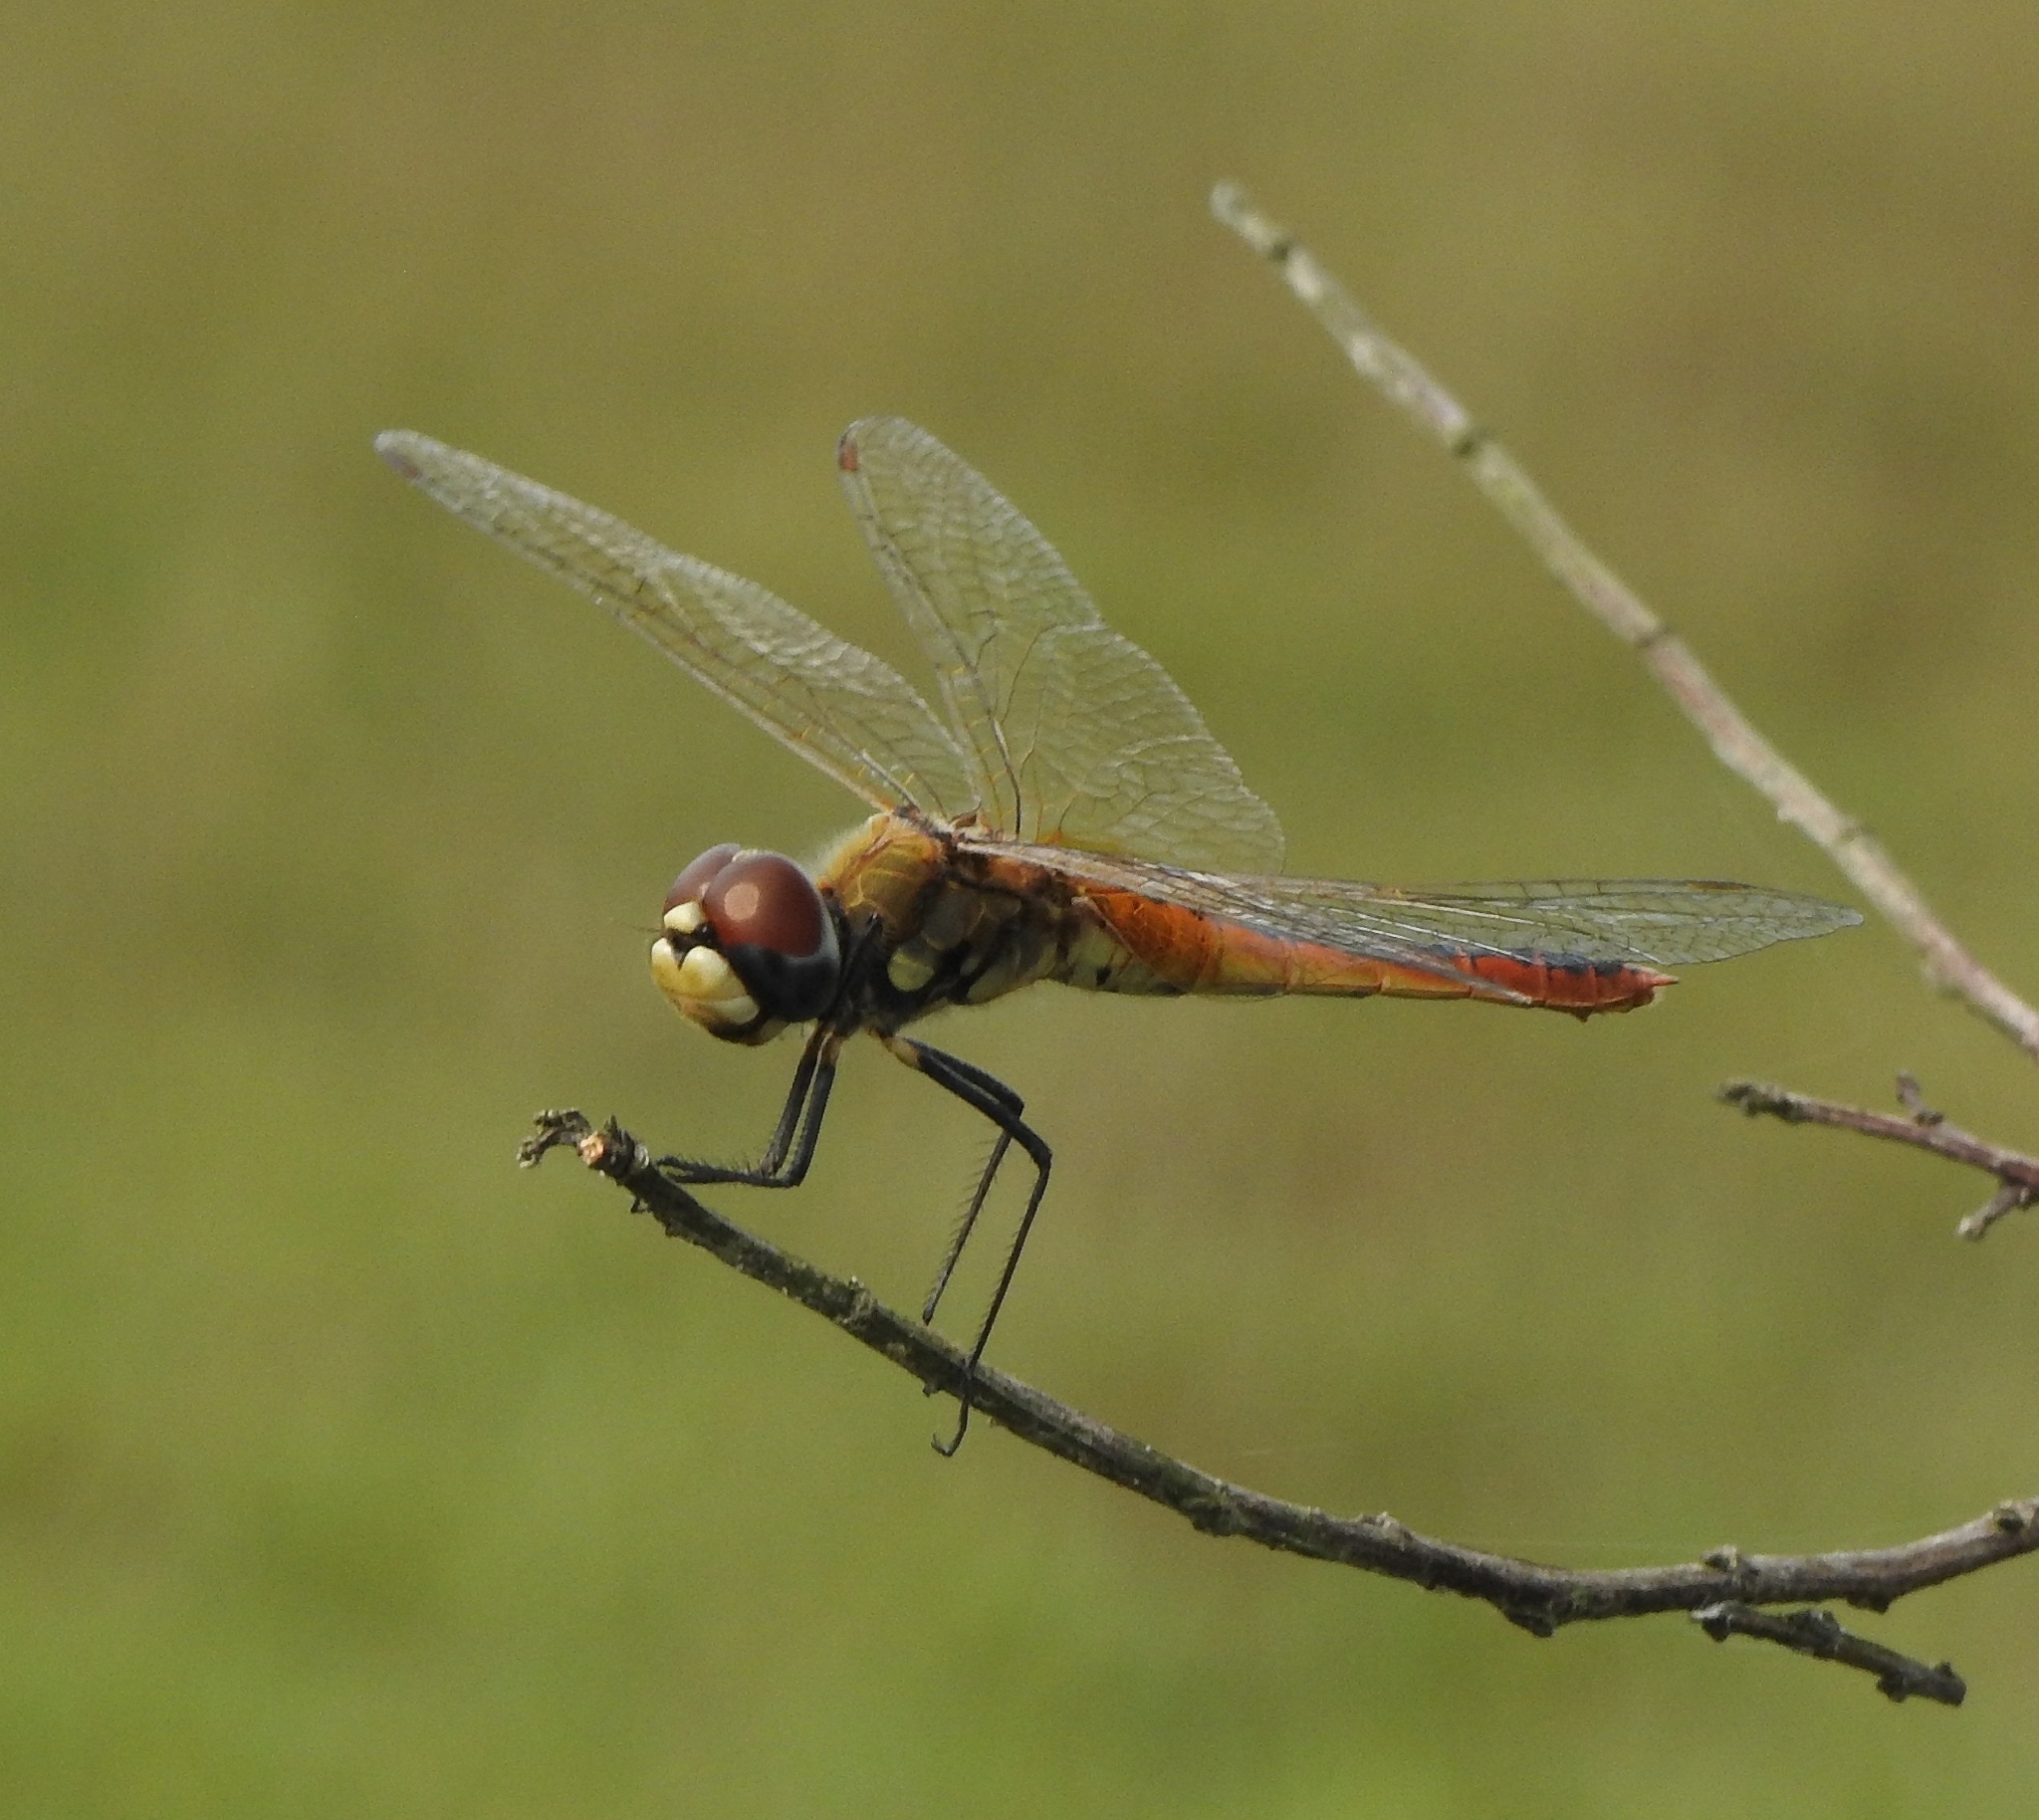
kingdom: Animalia
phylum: Arthropoda
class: Insecta
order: Odonata
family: Libellulidae
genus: Macrodiplax
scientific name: Macrodiplax cora
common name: Coastal glider
